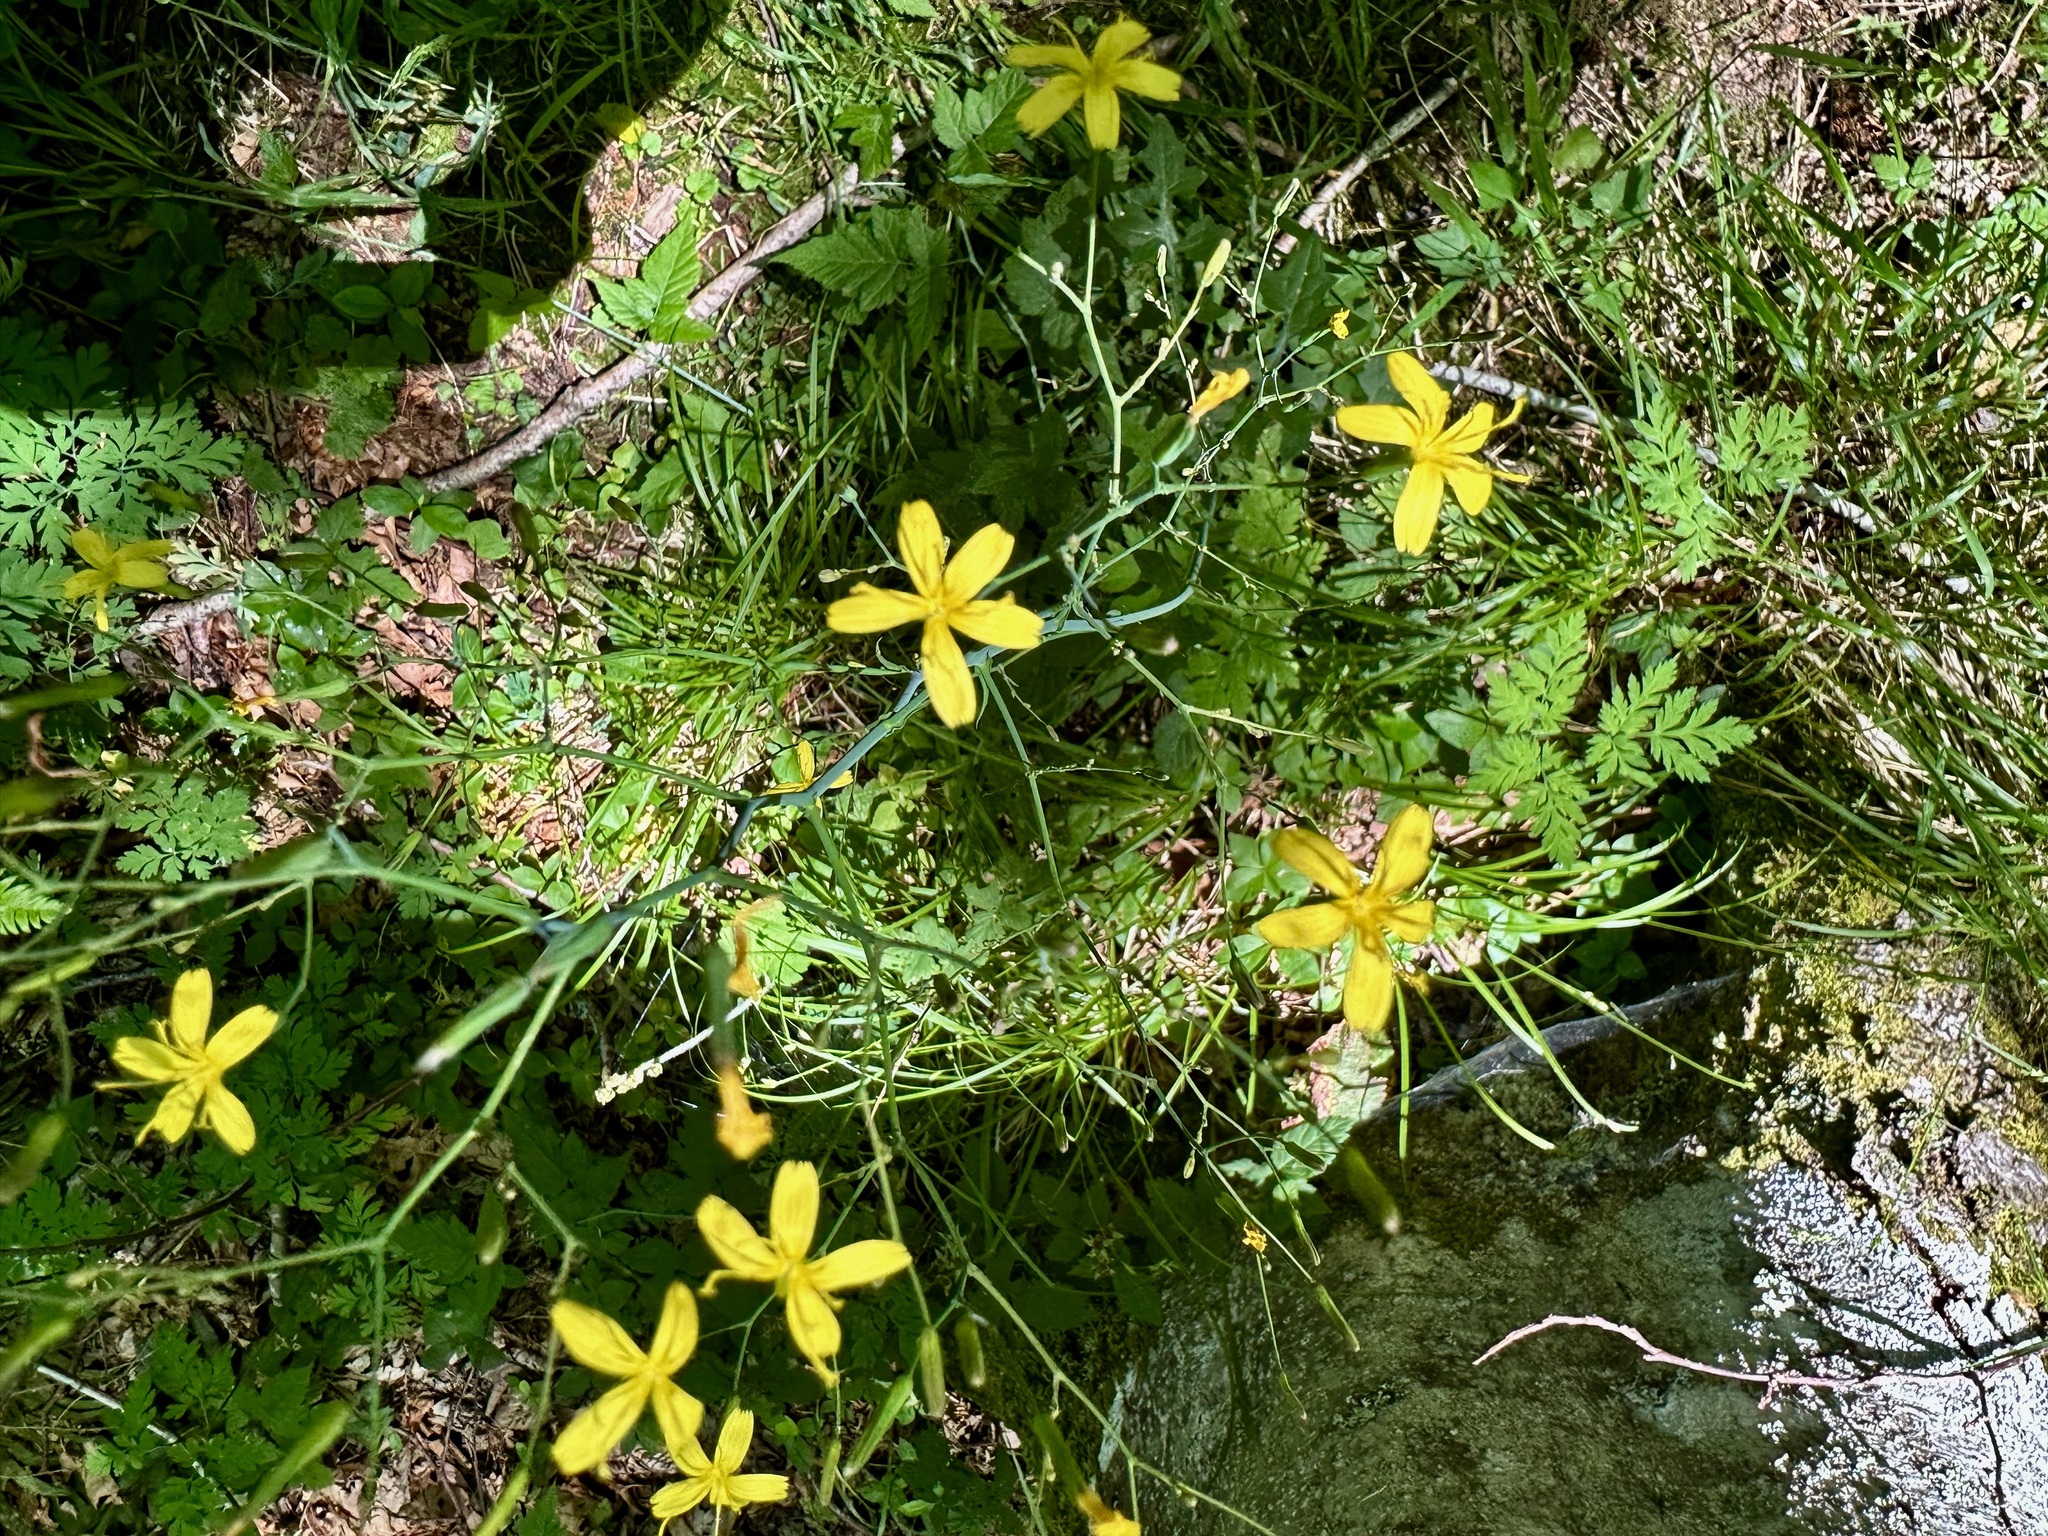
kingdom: Plantae
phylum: Tracheophyta
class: Magnoliopsida
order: Asterales
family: Asteraceae
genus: Mycelis
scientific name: Mycelis muralis
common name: Wall lettuce
